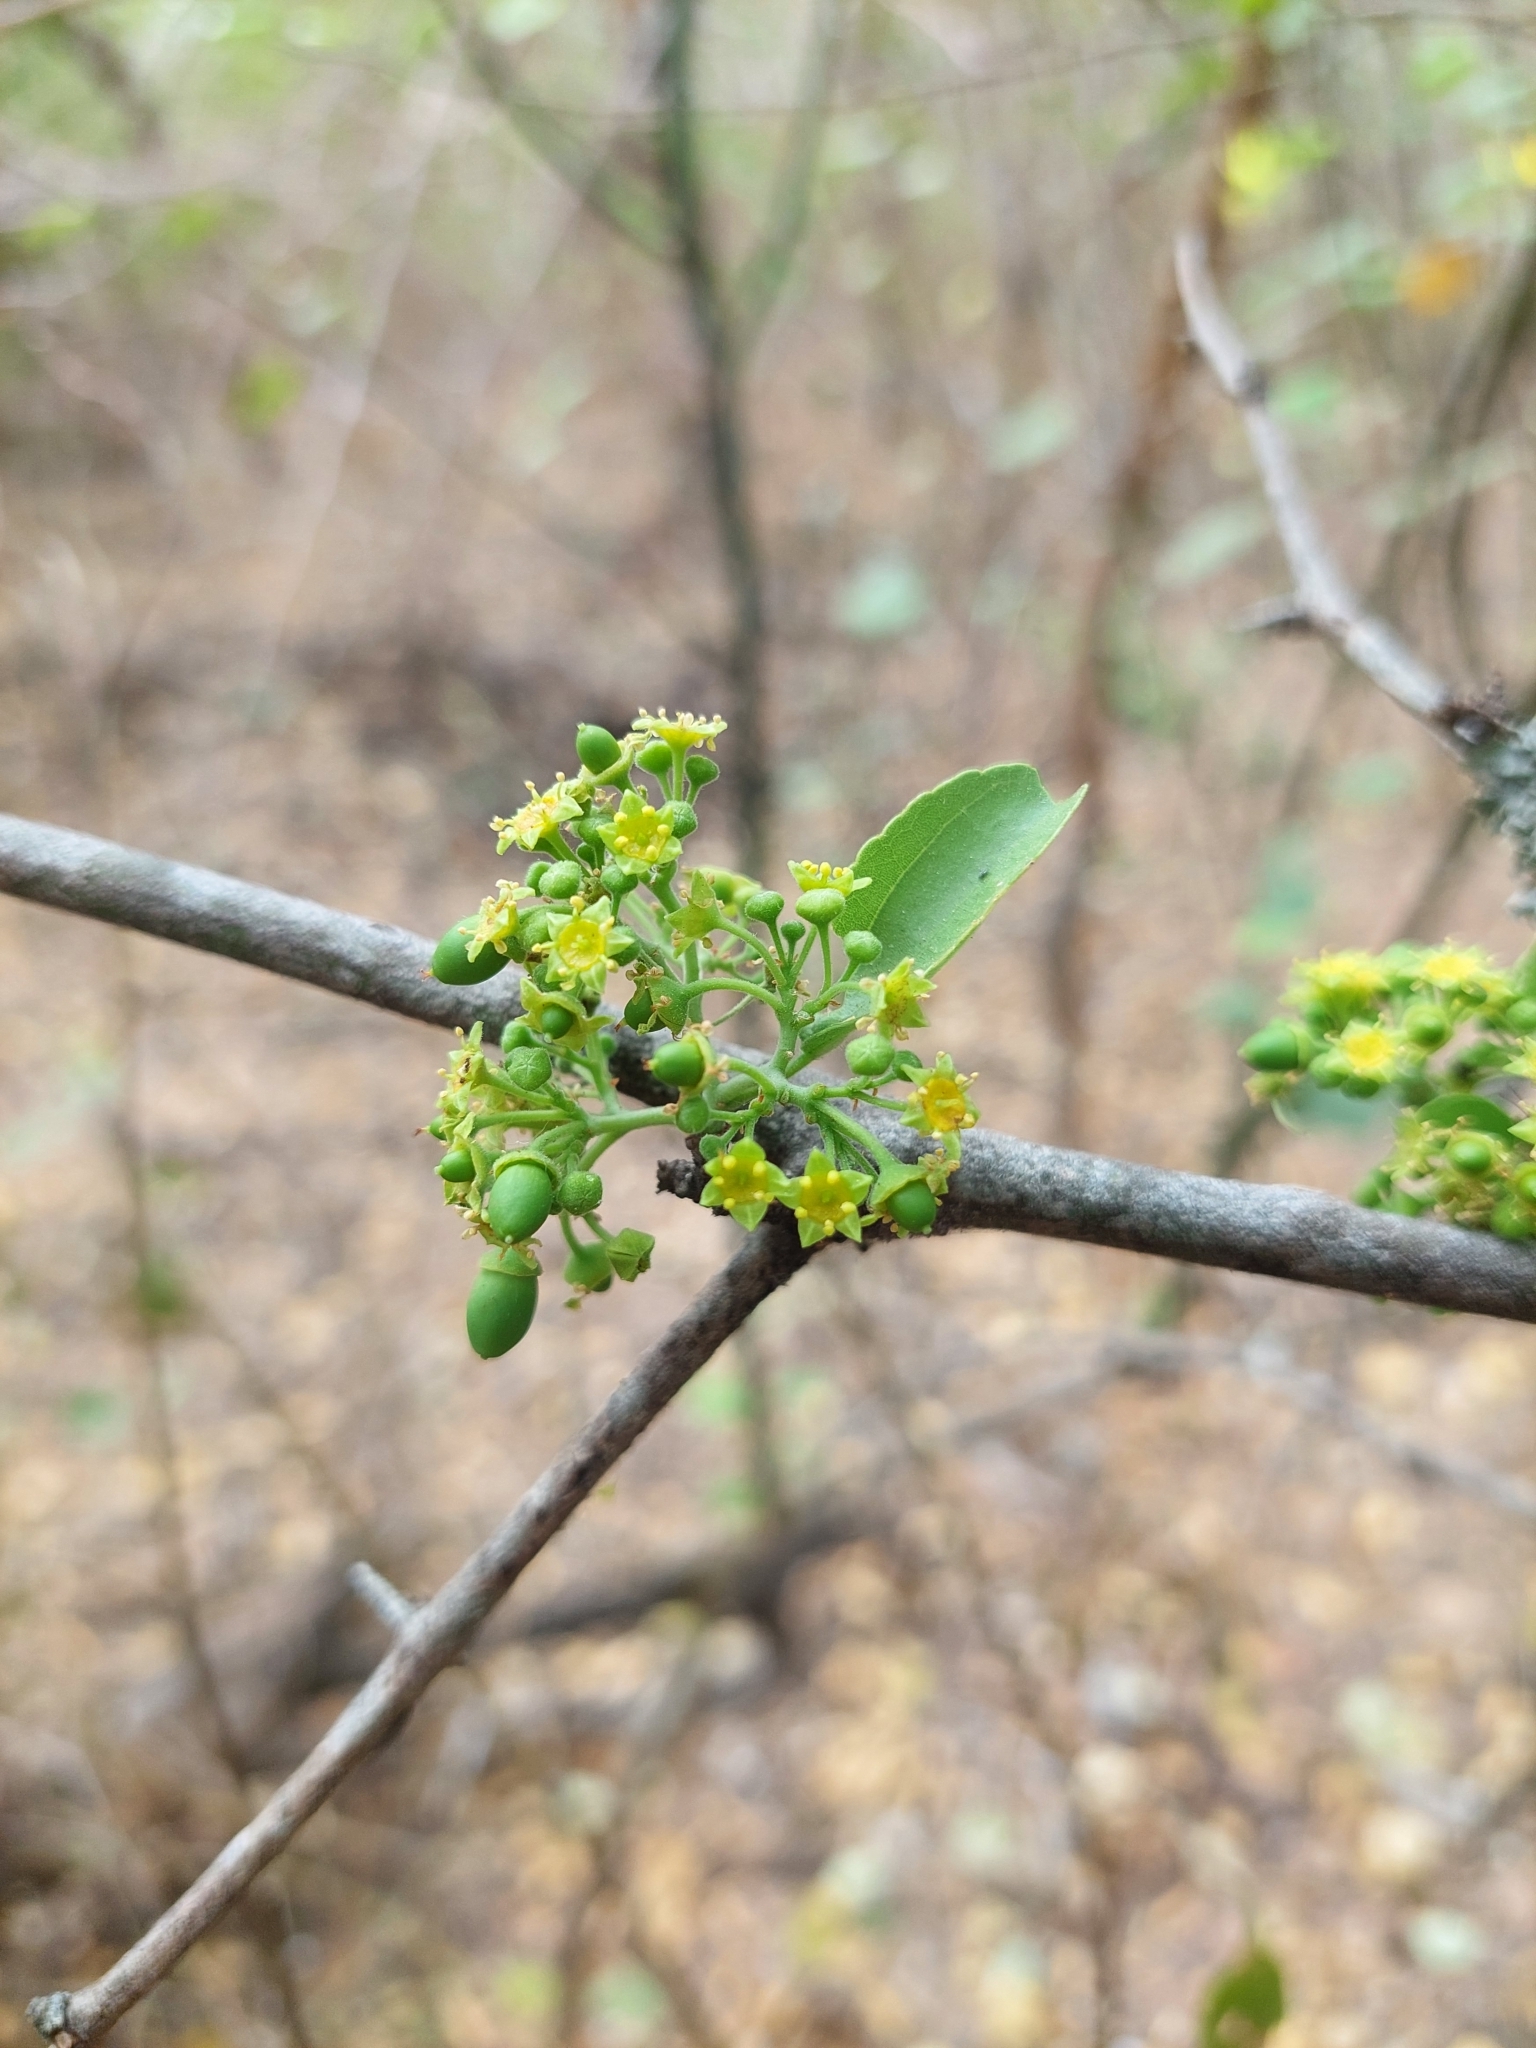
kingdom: Plantae
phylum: Tracheophyta
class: Magnoliopsida
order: Rosales
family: Rhamnaceae
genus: Sarcomphalus
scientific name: Sarcomphalus mistol
